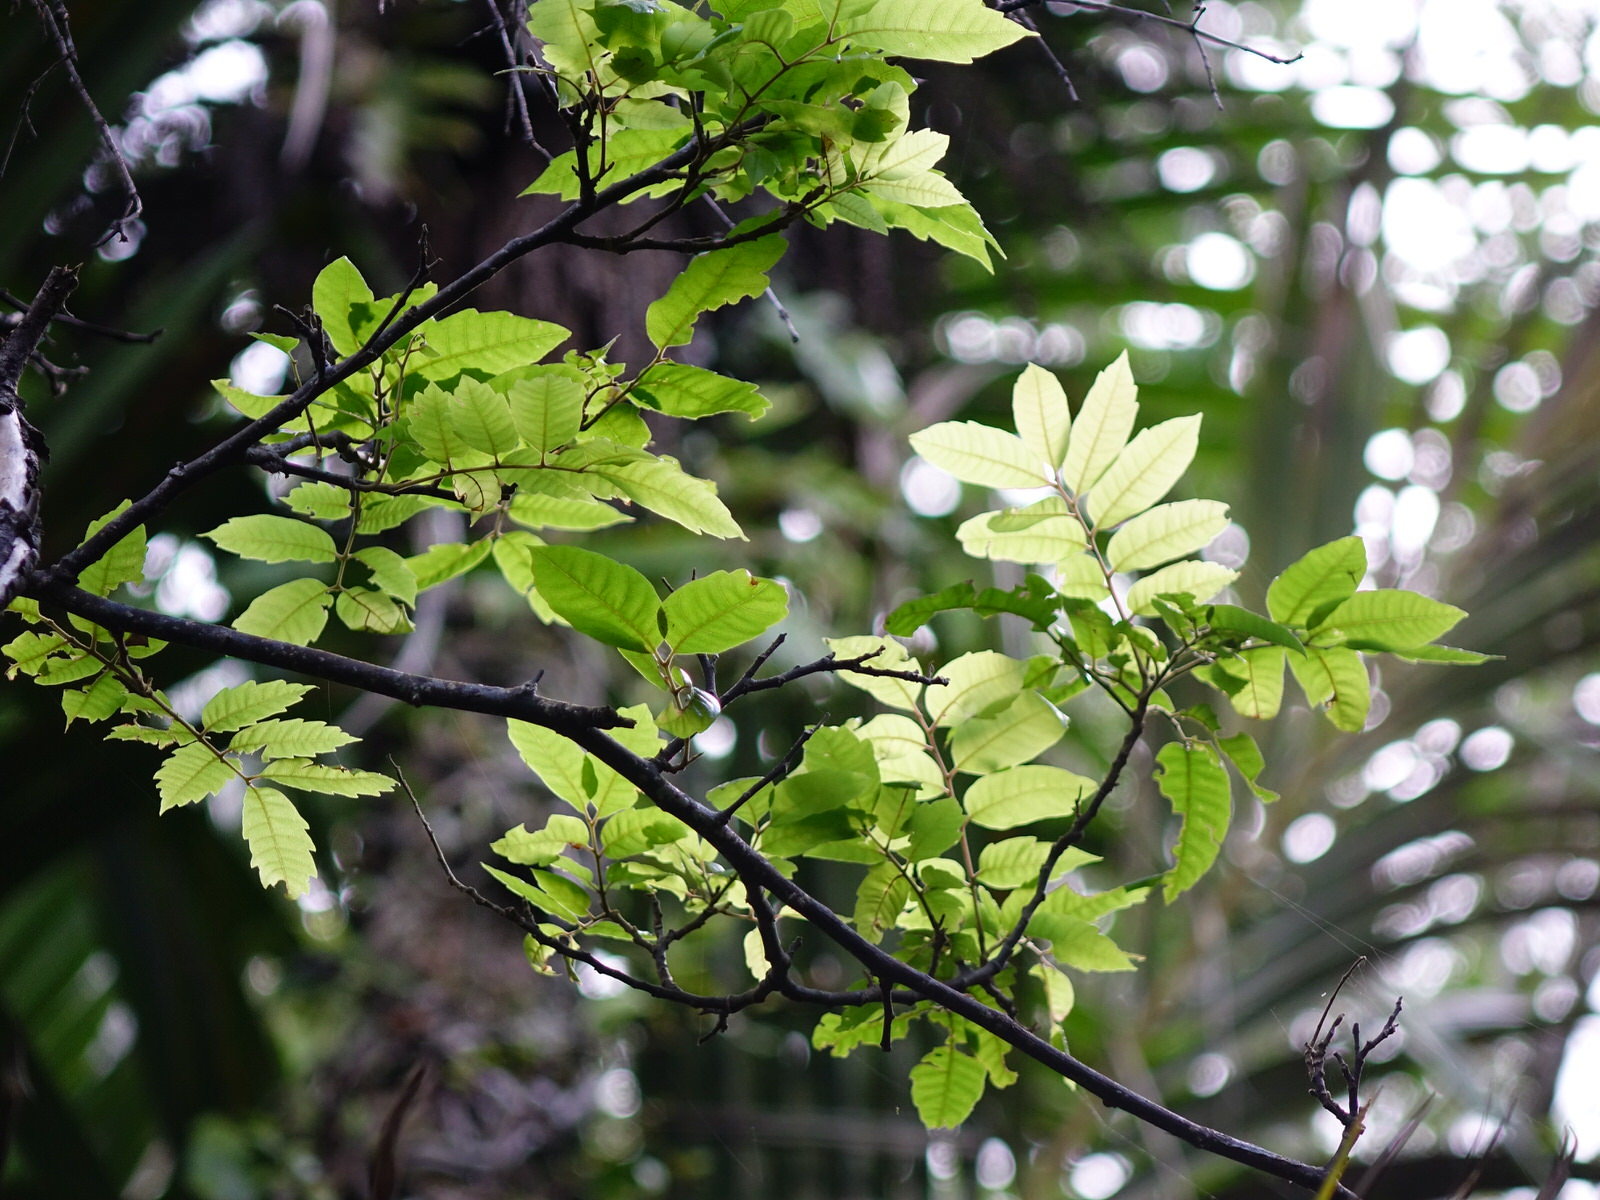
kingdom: Plantae
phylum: Tracheophyta
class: Magnoliopsida
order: Sapindales
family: Sapindaceae
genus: Alectryon
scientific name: Alectryon excelsus
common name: Three kings titoki
